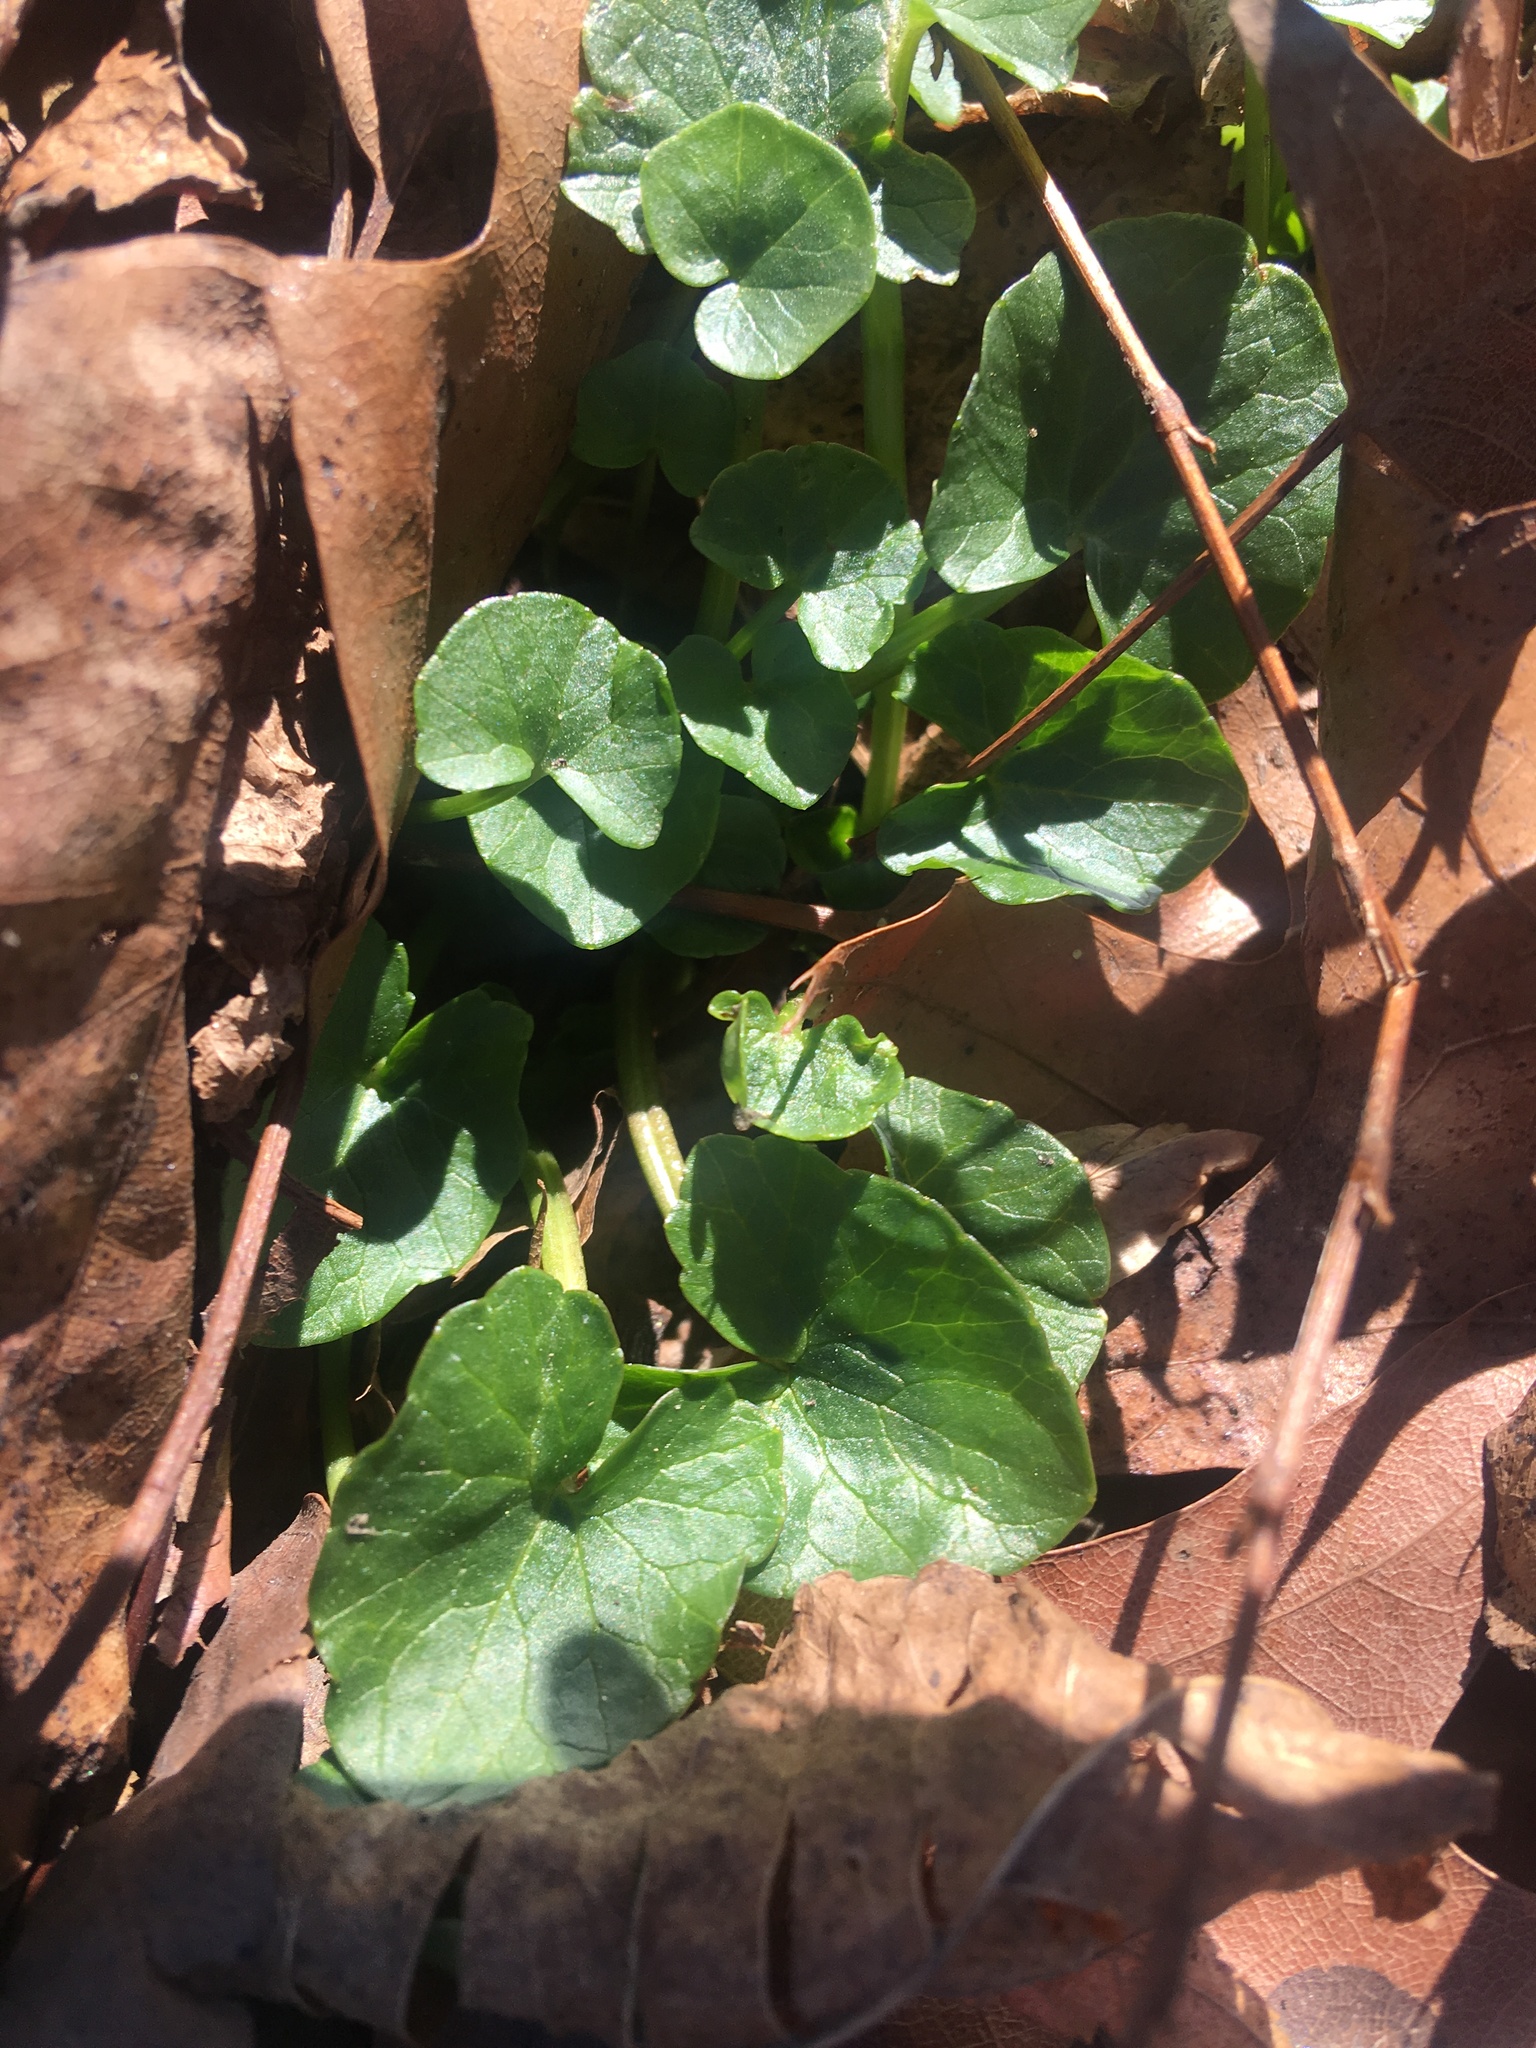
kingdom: Plantae
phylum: Tracheophyta
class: Magnoliopsida
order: Ranunculales
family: Ranunculaceae
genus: Ficaria
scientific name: Ficaria verna
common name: Lesser celandine
